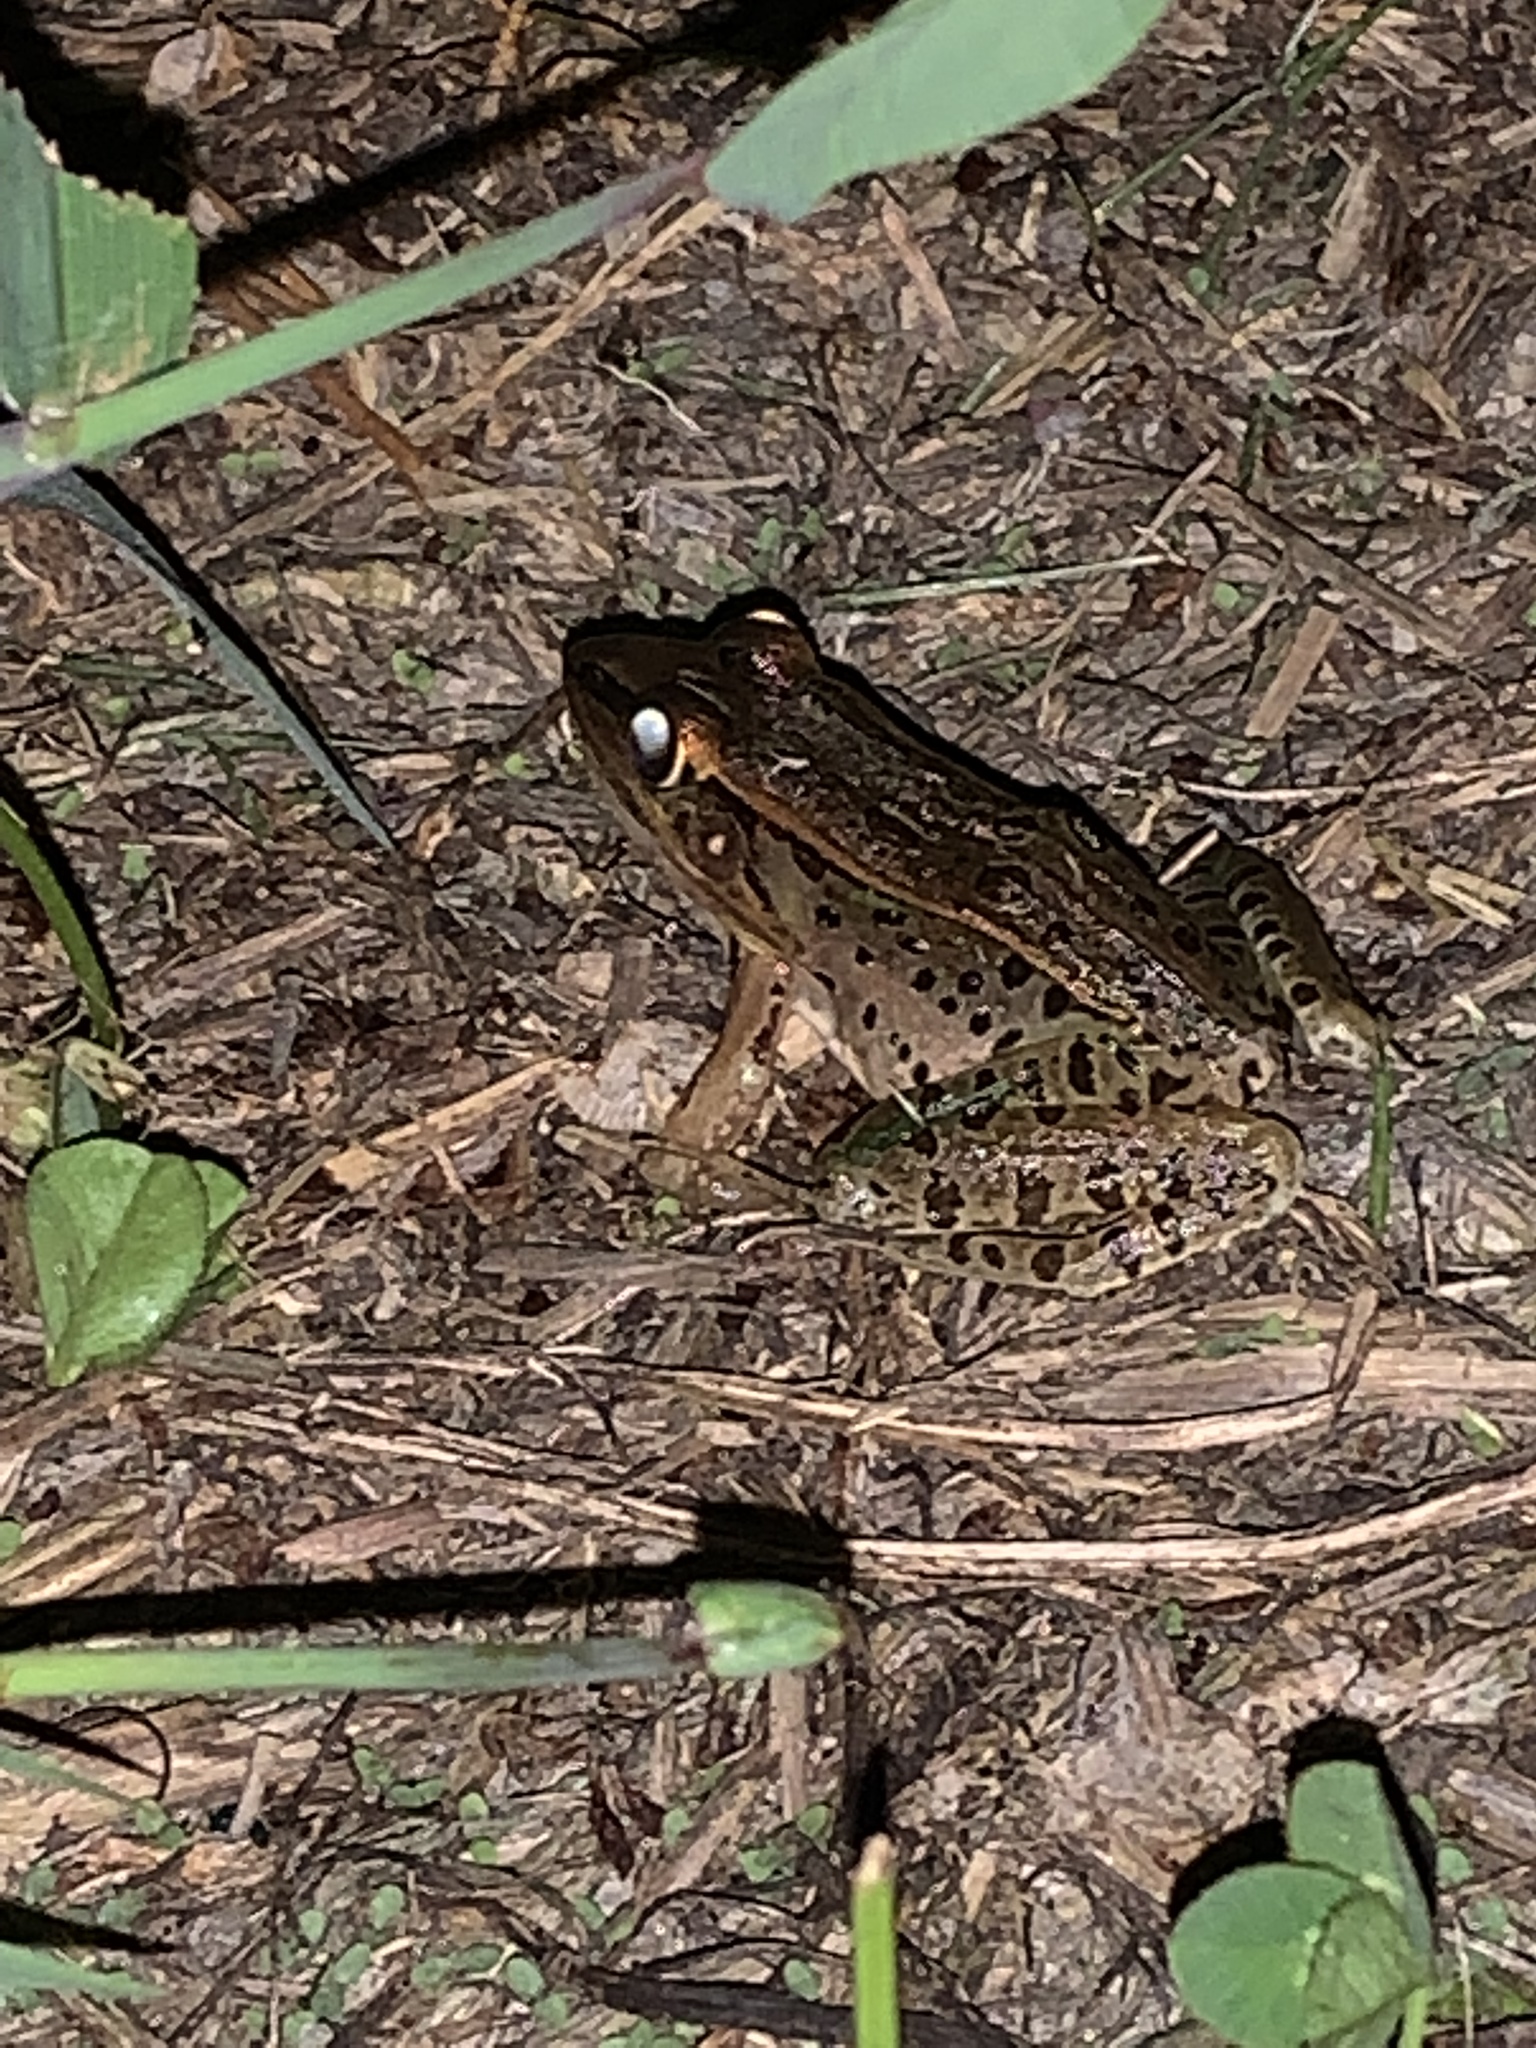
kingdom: Animalia
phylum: Chordata
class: Amphibia
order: Anura
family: Ranidae
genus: Lithobates
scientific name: Lithobates sphenocephalus
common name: Southern leopard frog
